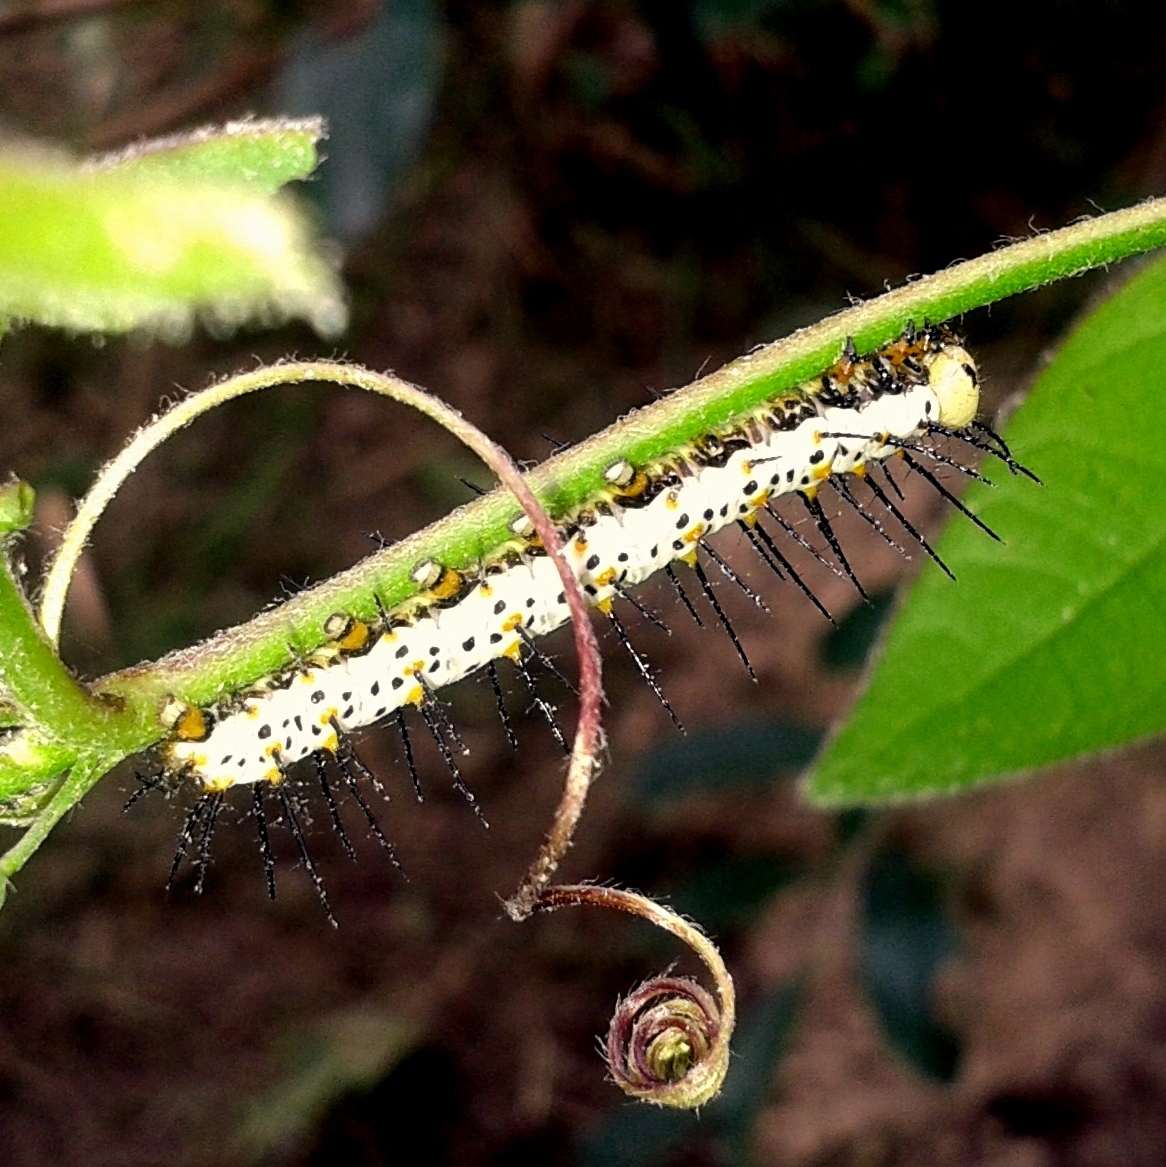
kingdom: Animalia
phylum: Arthropoda
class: Insecta
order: Lepidoptera
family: Nymphalidae
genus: Heliconius
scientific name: Heliconius erato
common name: Common patch longwing
